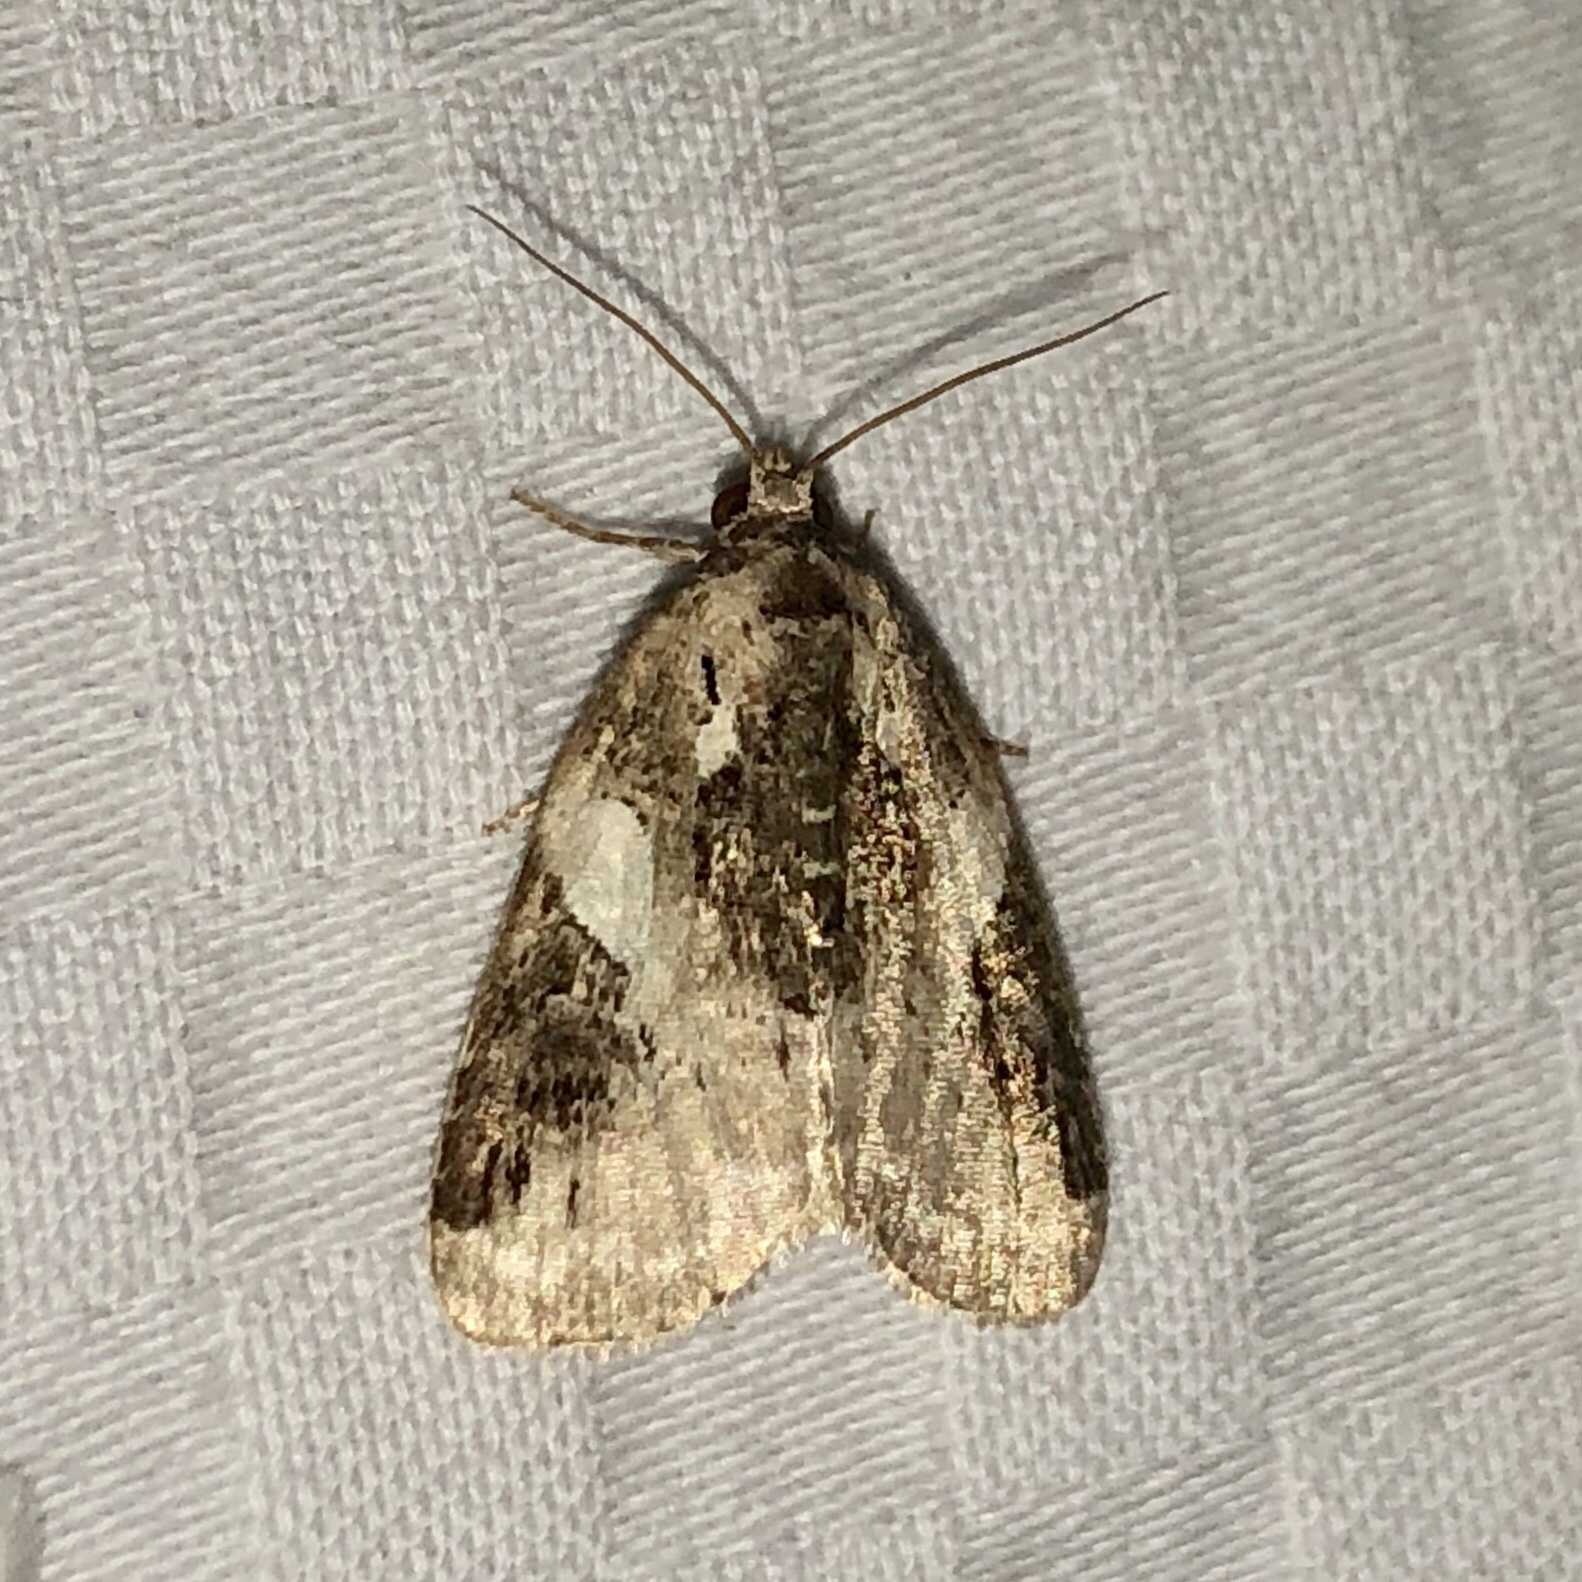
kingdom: Animalia
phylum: Arthropoda
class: Insecta
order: Lepidoptera
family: Noctuidae
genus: Pseudeustrotia
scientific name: Pseudeustrotia carneola
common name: Pink-barred lithacodia moth
